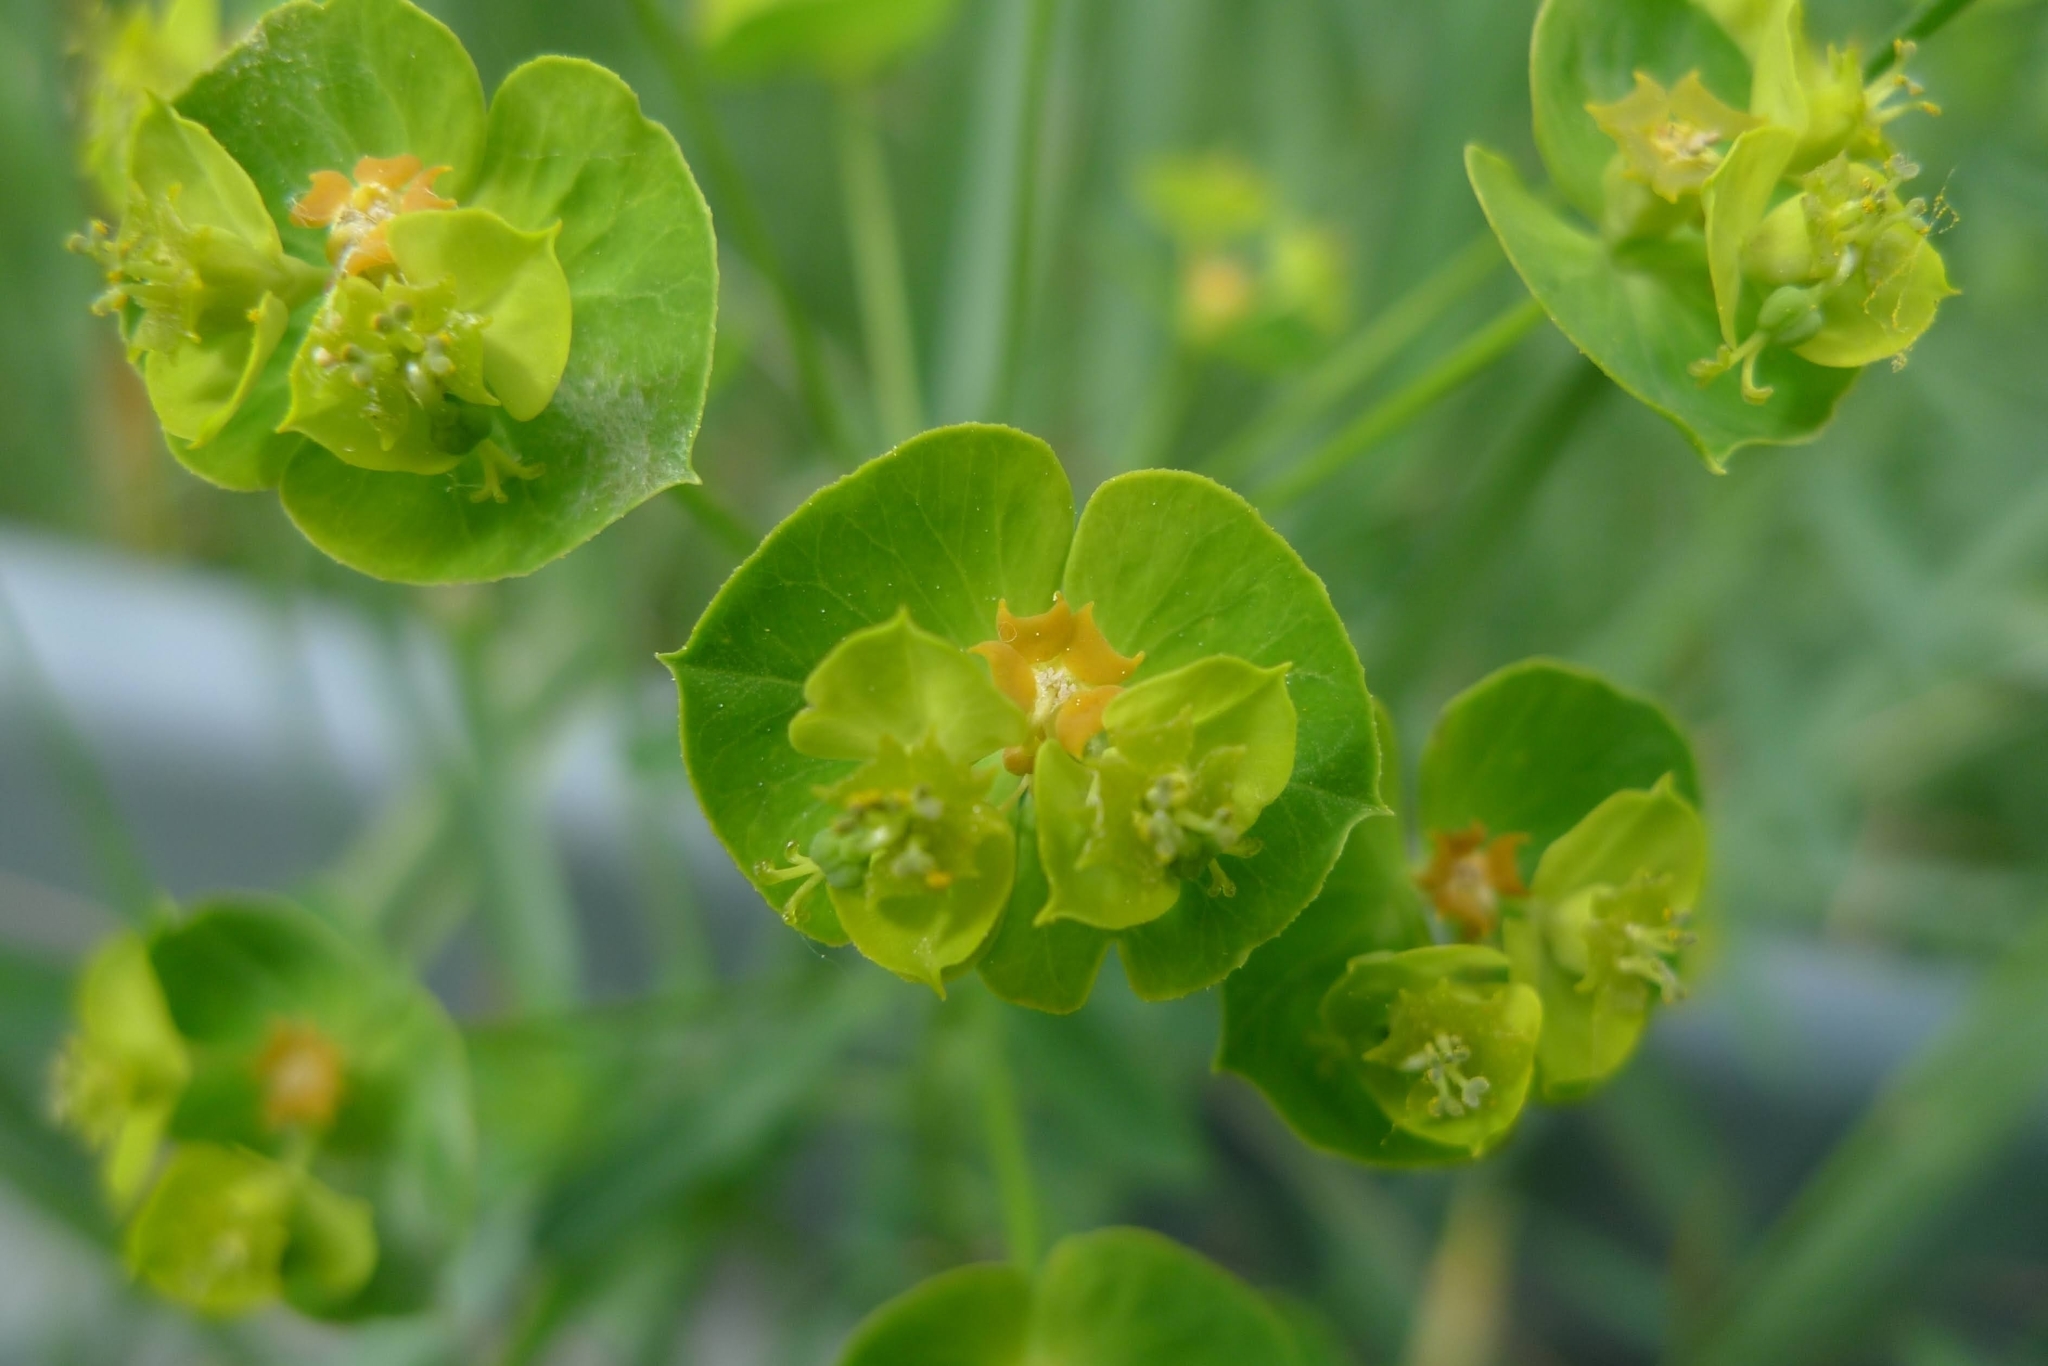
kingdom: Plantae
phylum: Tracheophyta
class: Magnoliopsida
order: Malpighiales
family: Euphorbiaceae
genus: Euphorbia
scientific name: Euphorbia esula
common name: Leafy spurge
